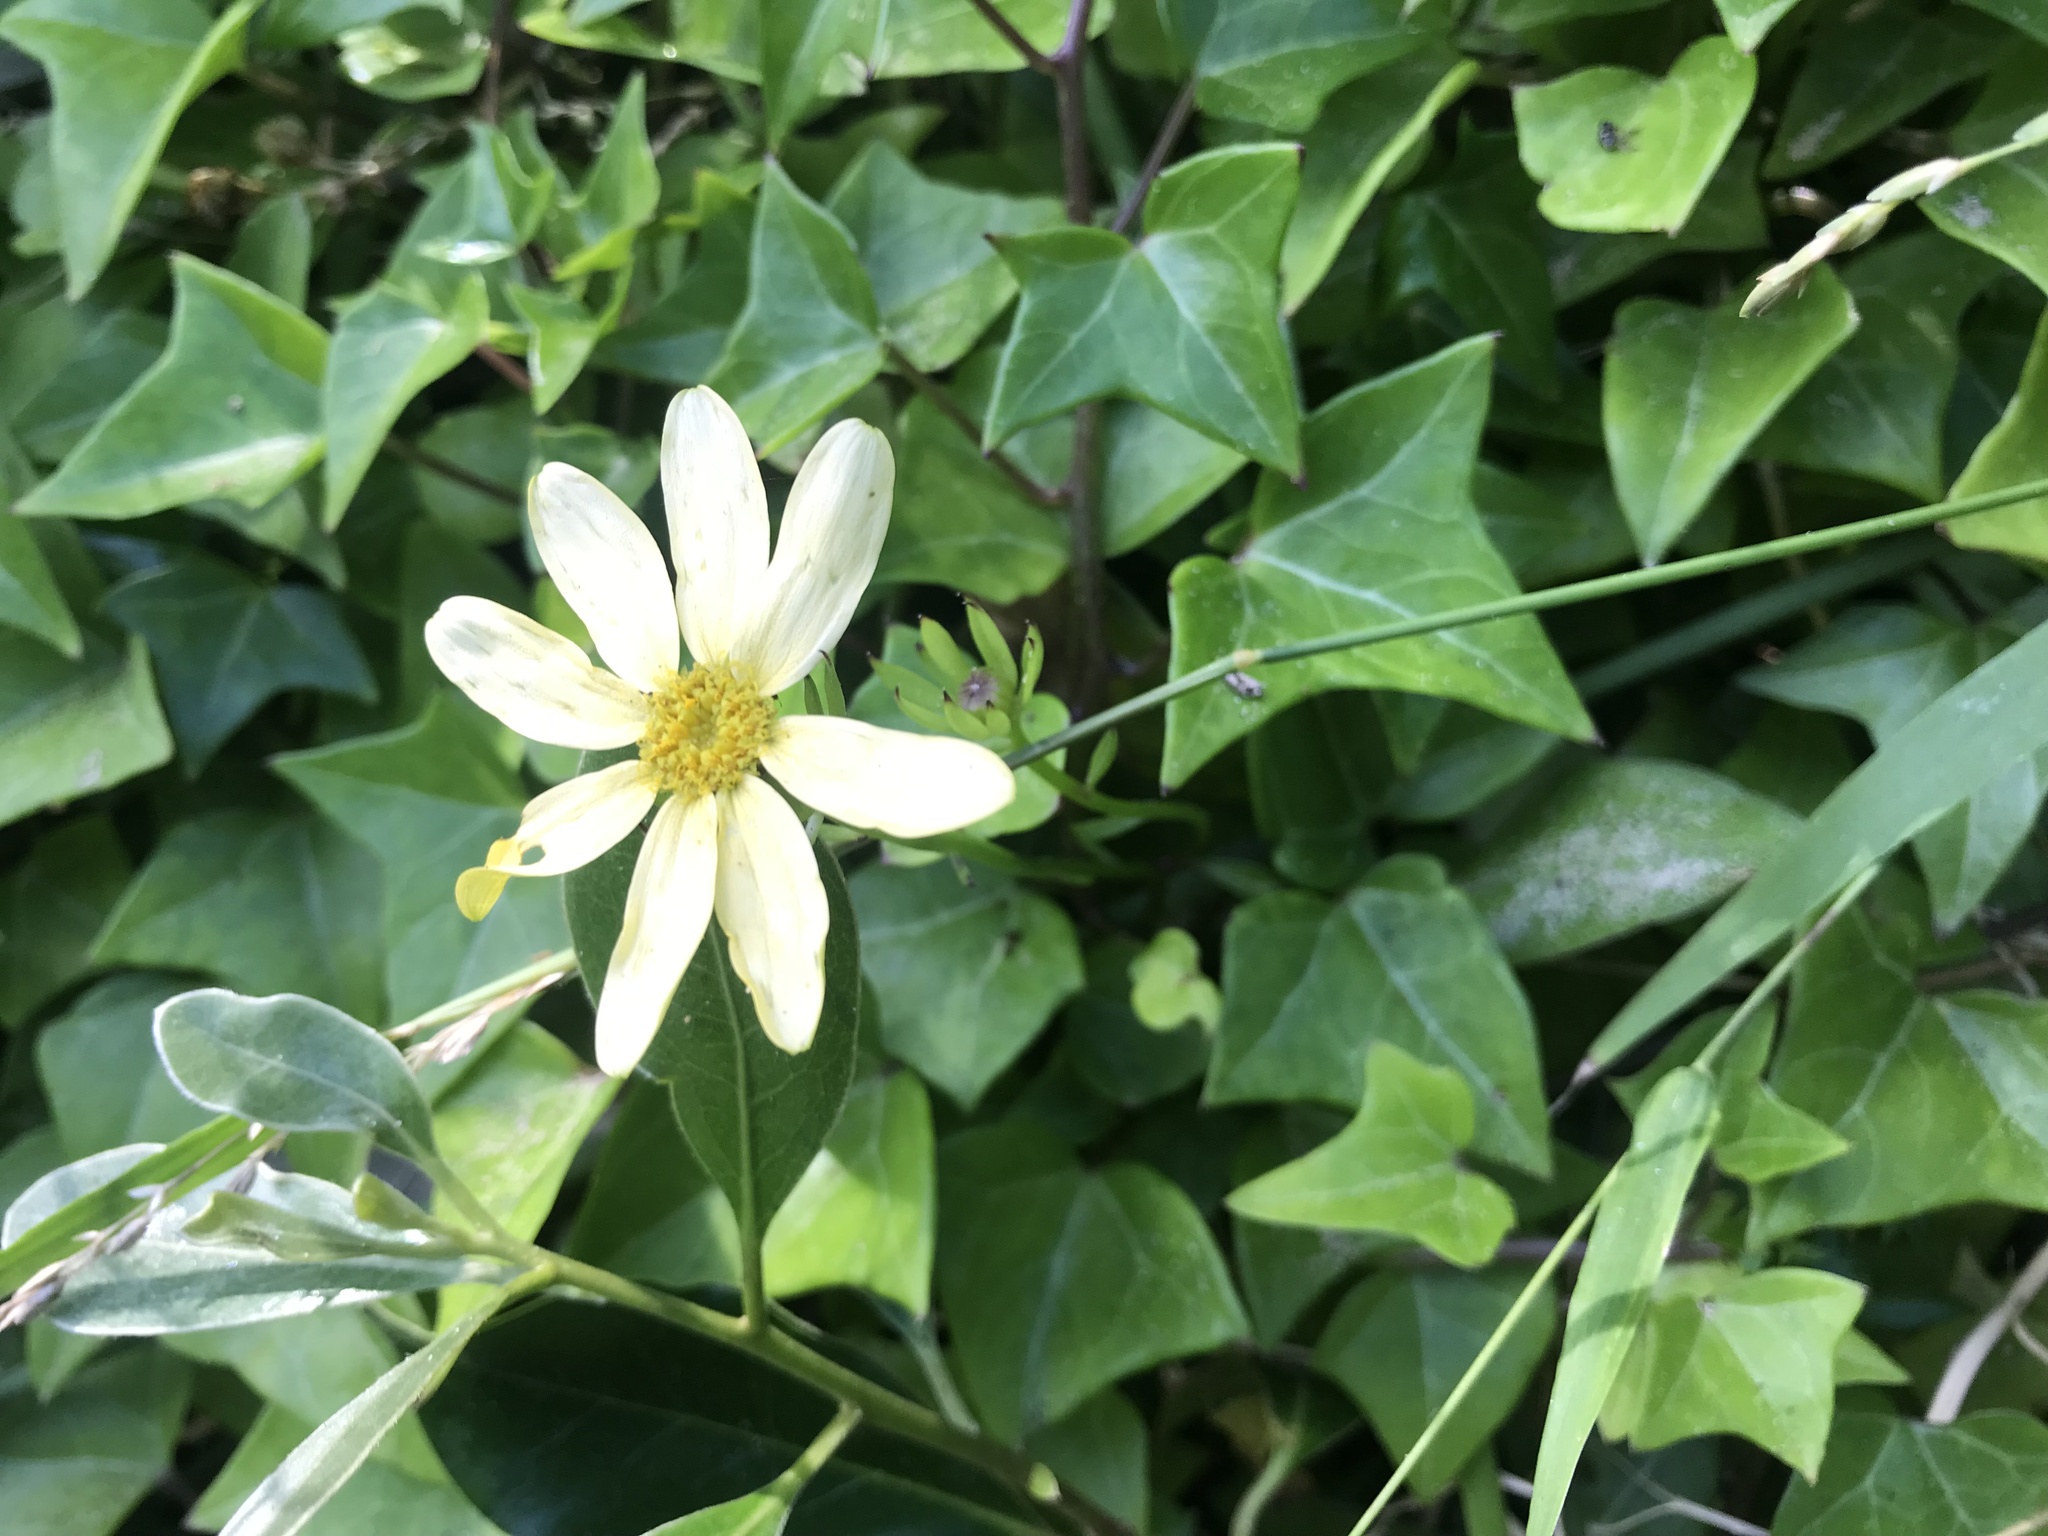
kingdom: Plantae
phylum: Tracheophyta
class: Magnoliopsida
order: Asterales
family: Asteraceae
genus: Senecio
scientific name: Senecio macroglossus
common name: Natal-ivy
